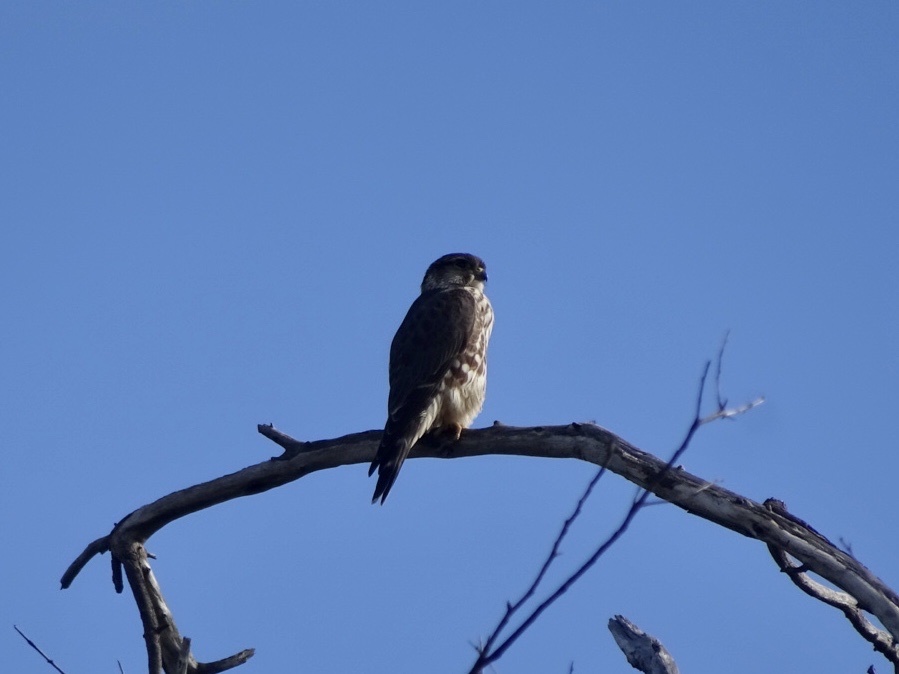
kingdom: Animalia
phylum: Chordata
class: Aves
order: Falconiformes
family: Falconidae
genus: Falco
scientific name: Falco columbarius
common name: Merlin
